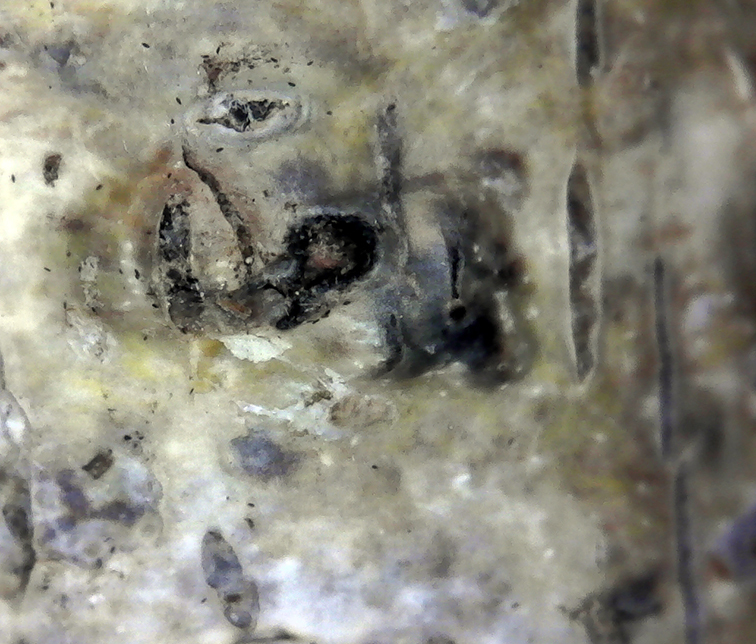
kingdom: Fungi
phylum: Ascomycota
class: Eurotiomycetes
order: Pyrenulales
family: Pyrenulaceae
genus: Pyrenula
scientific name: Pyrenula pyrenuloides
